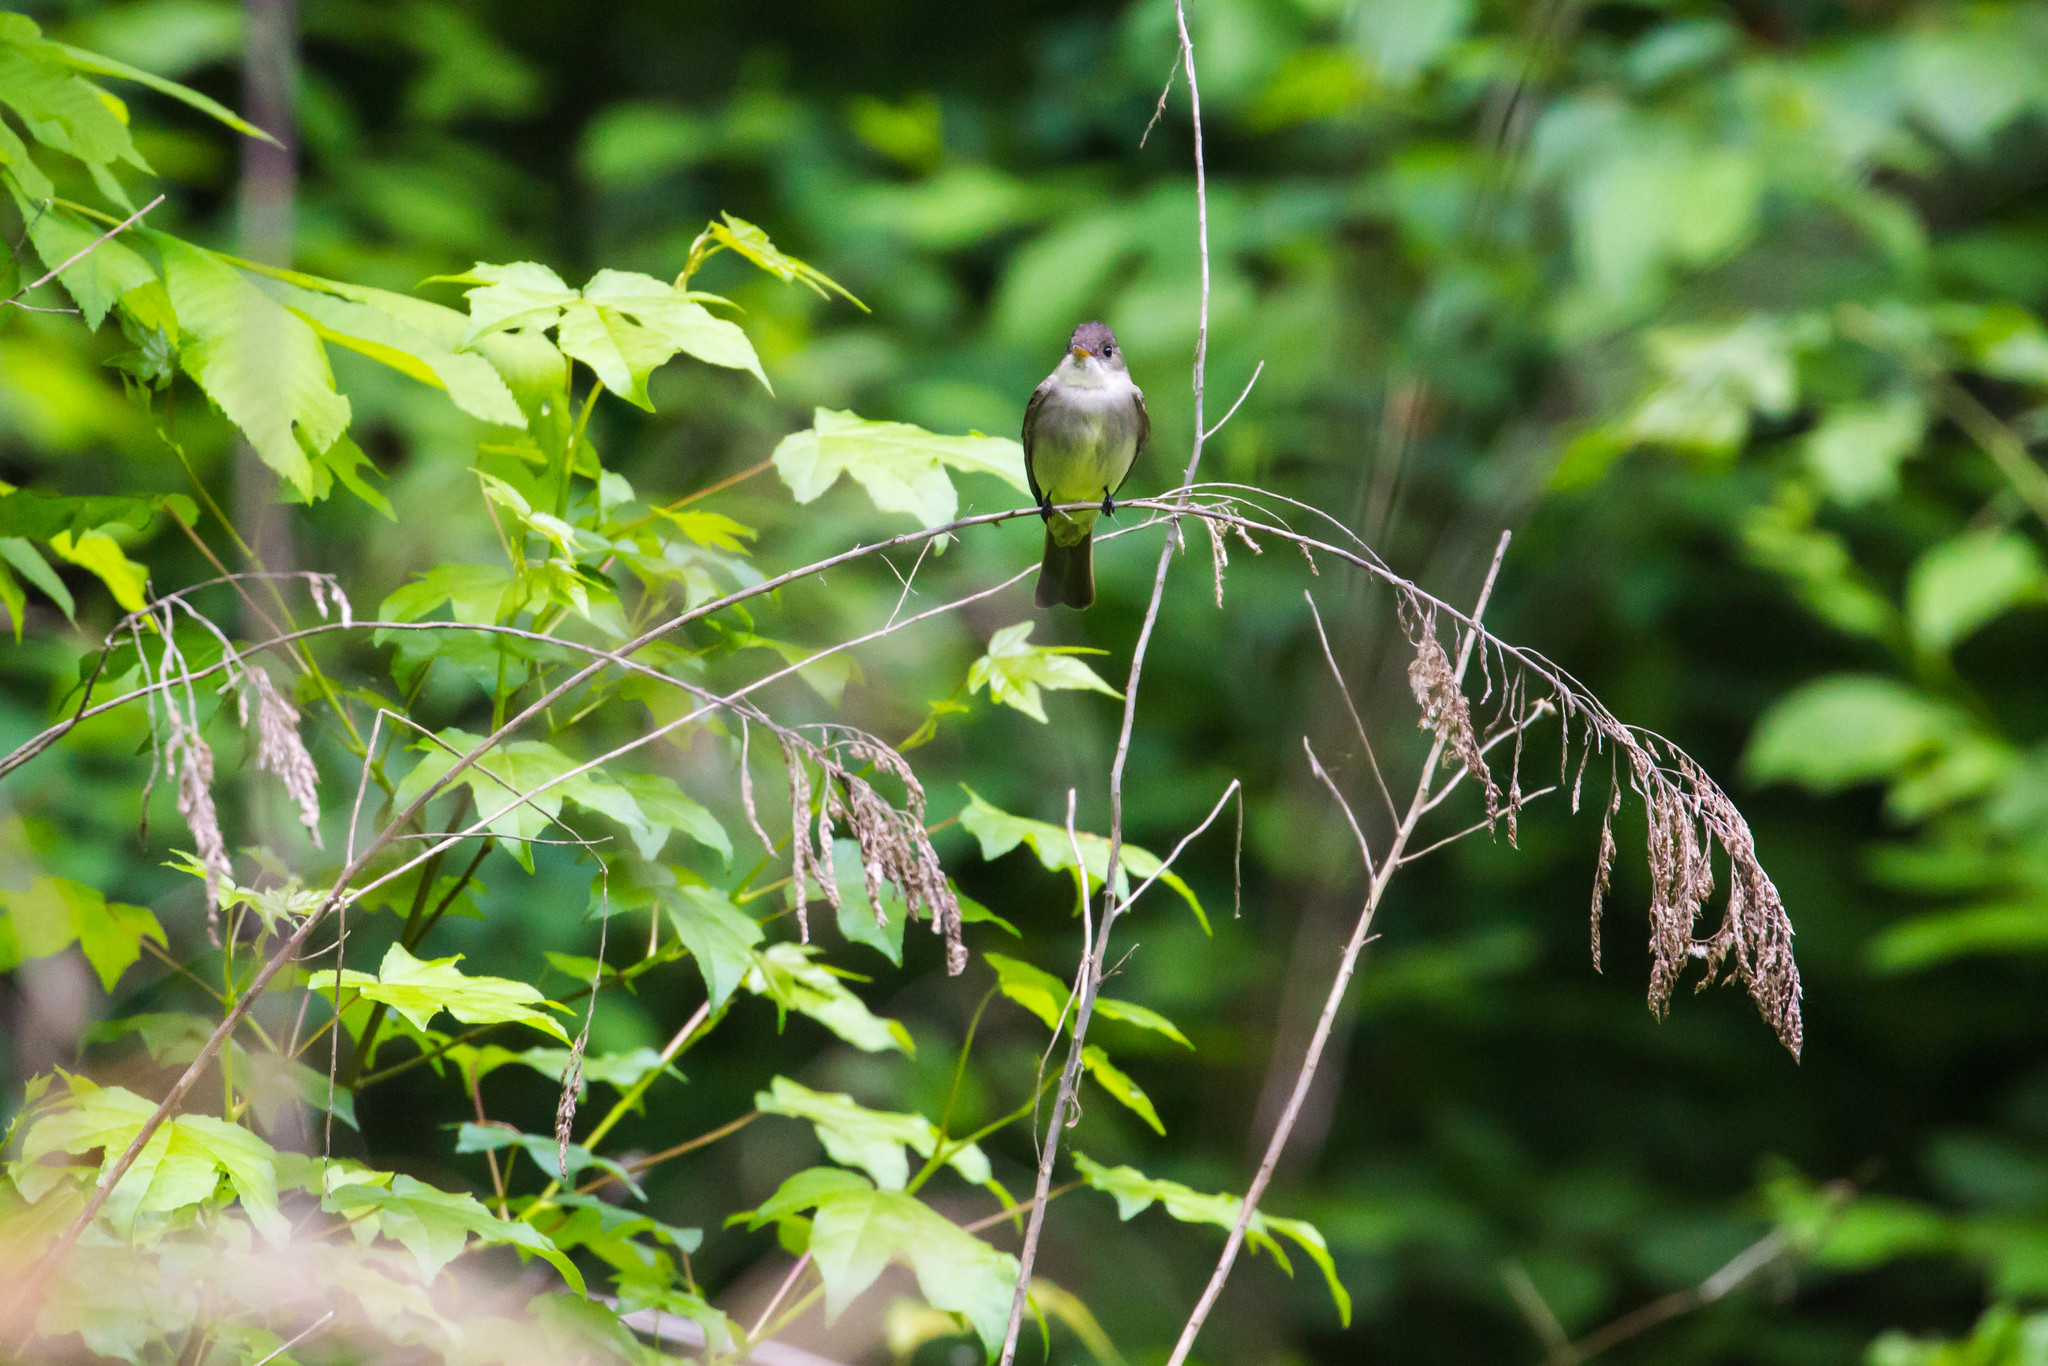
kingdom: Animalia
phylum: Chordata
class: Aves
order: Passeriformes
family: Tyrannidae
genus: Contopus
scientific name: Contopus virens
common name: Eastern wood-pewee
